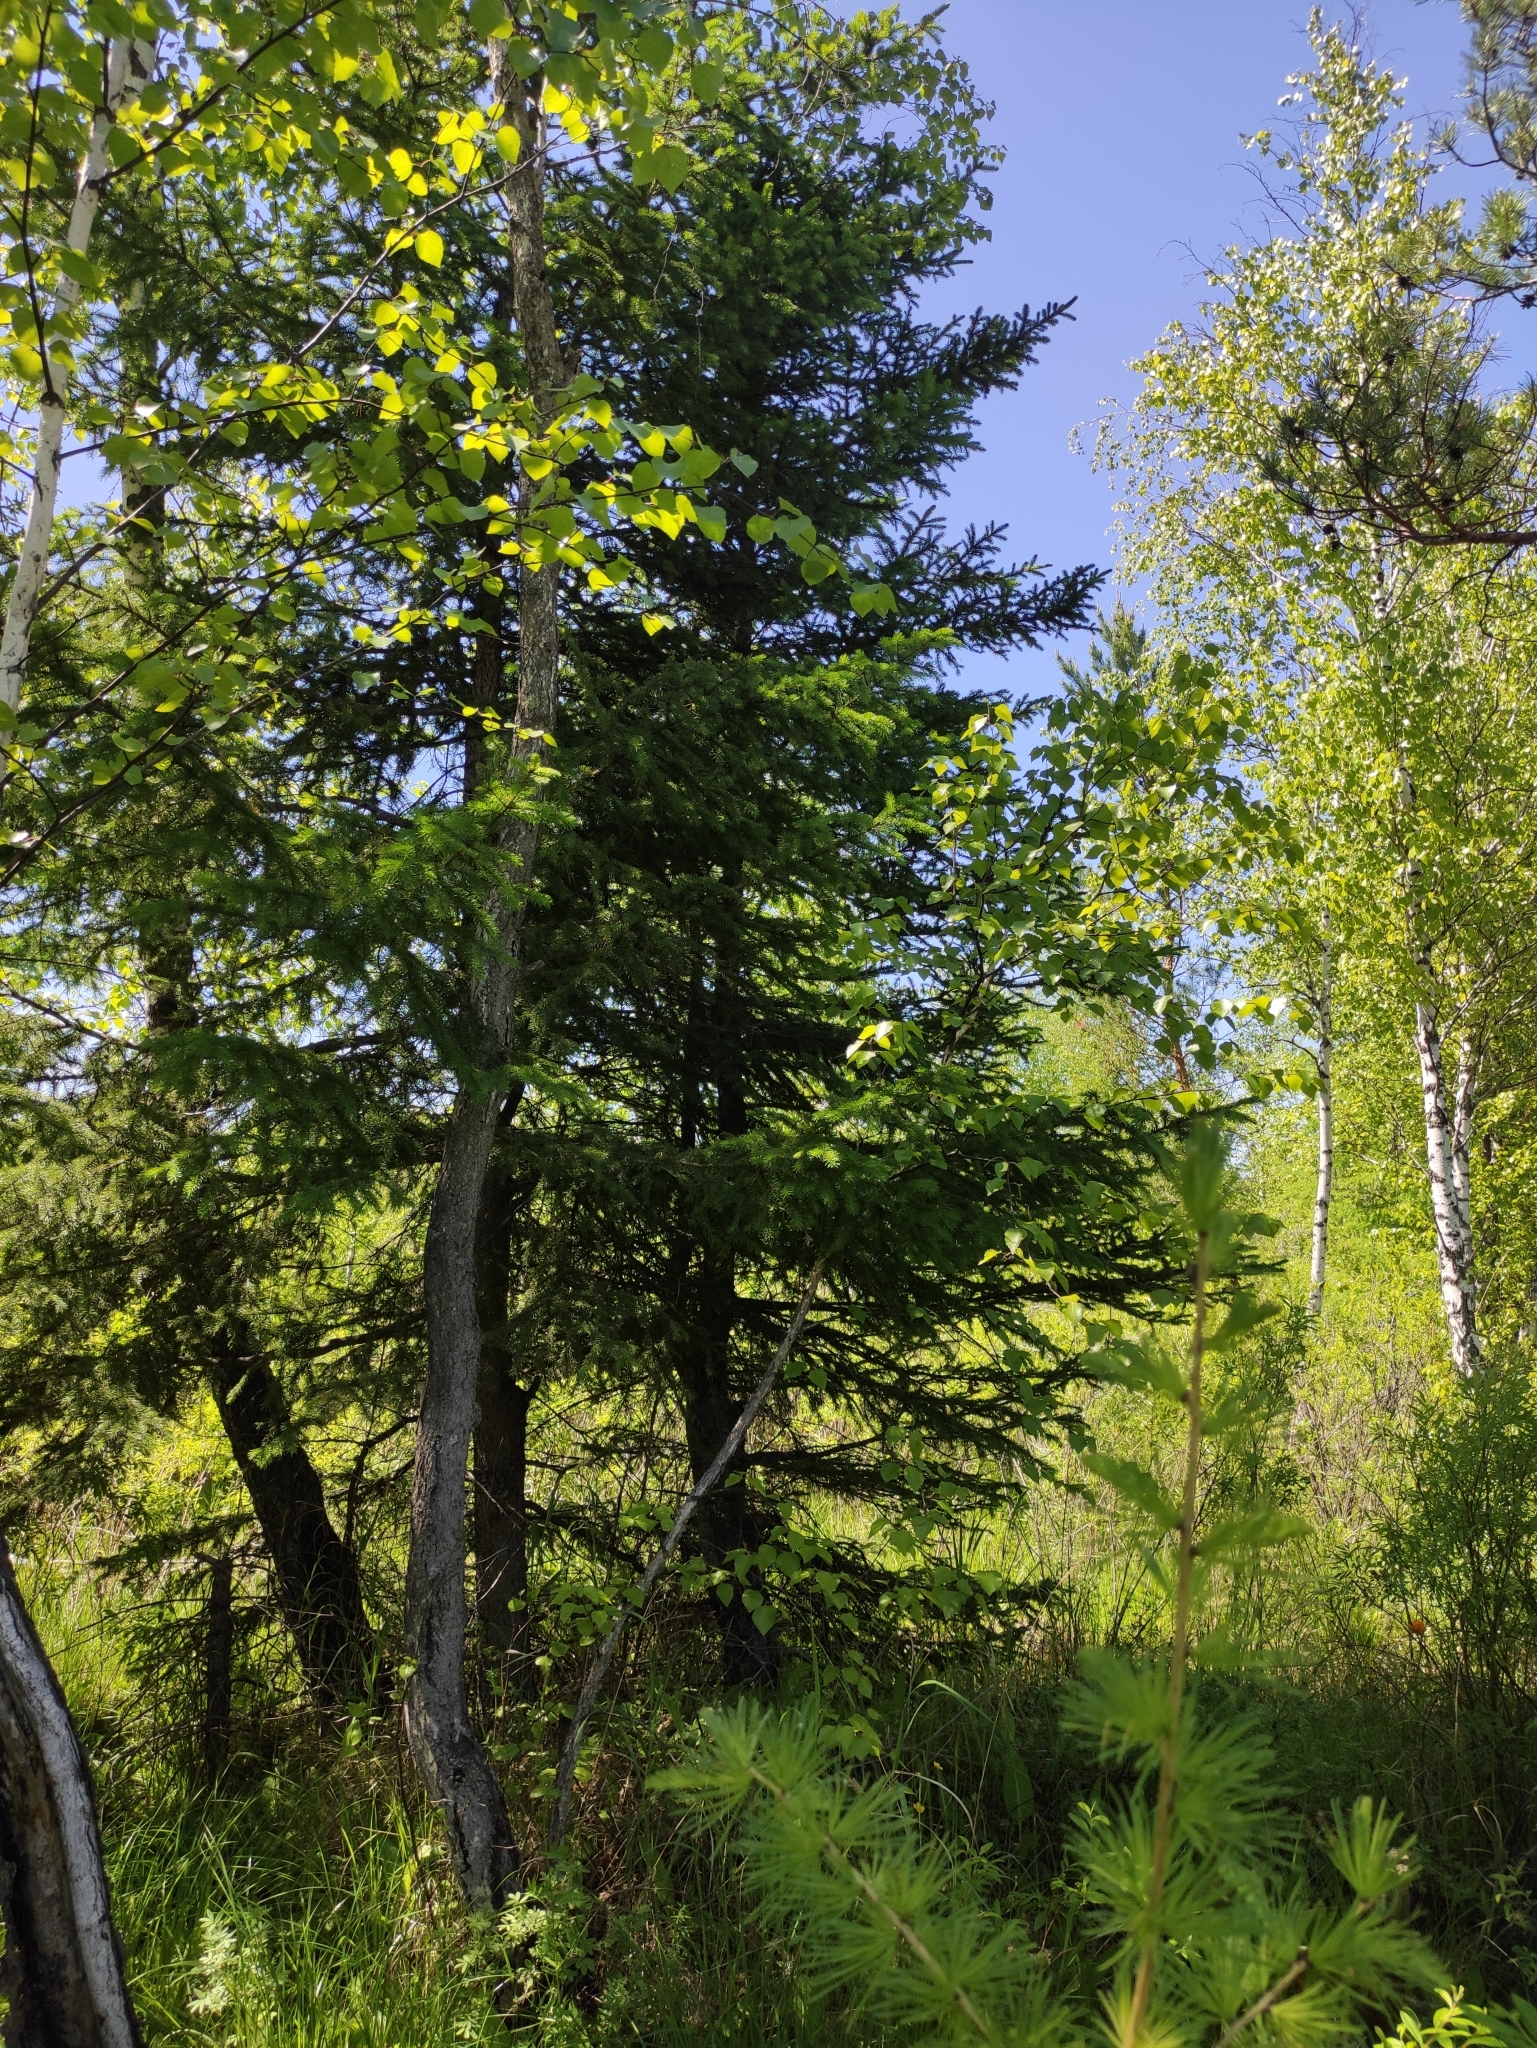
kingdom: Plantae
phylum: Tracheophyta
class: Pinopsida
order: Pinales
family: Pinaceae
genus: Picea
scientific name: Picea obovata
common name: Siberian spruce
